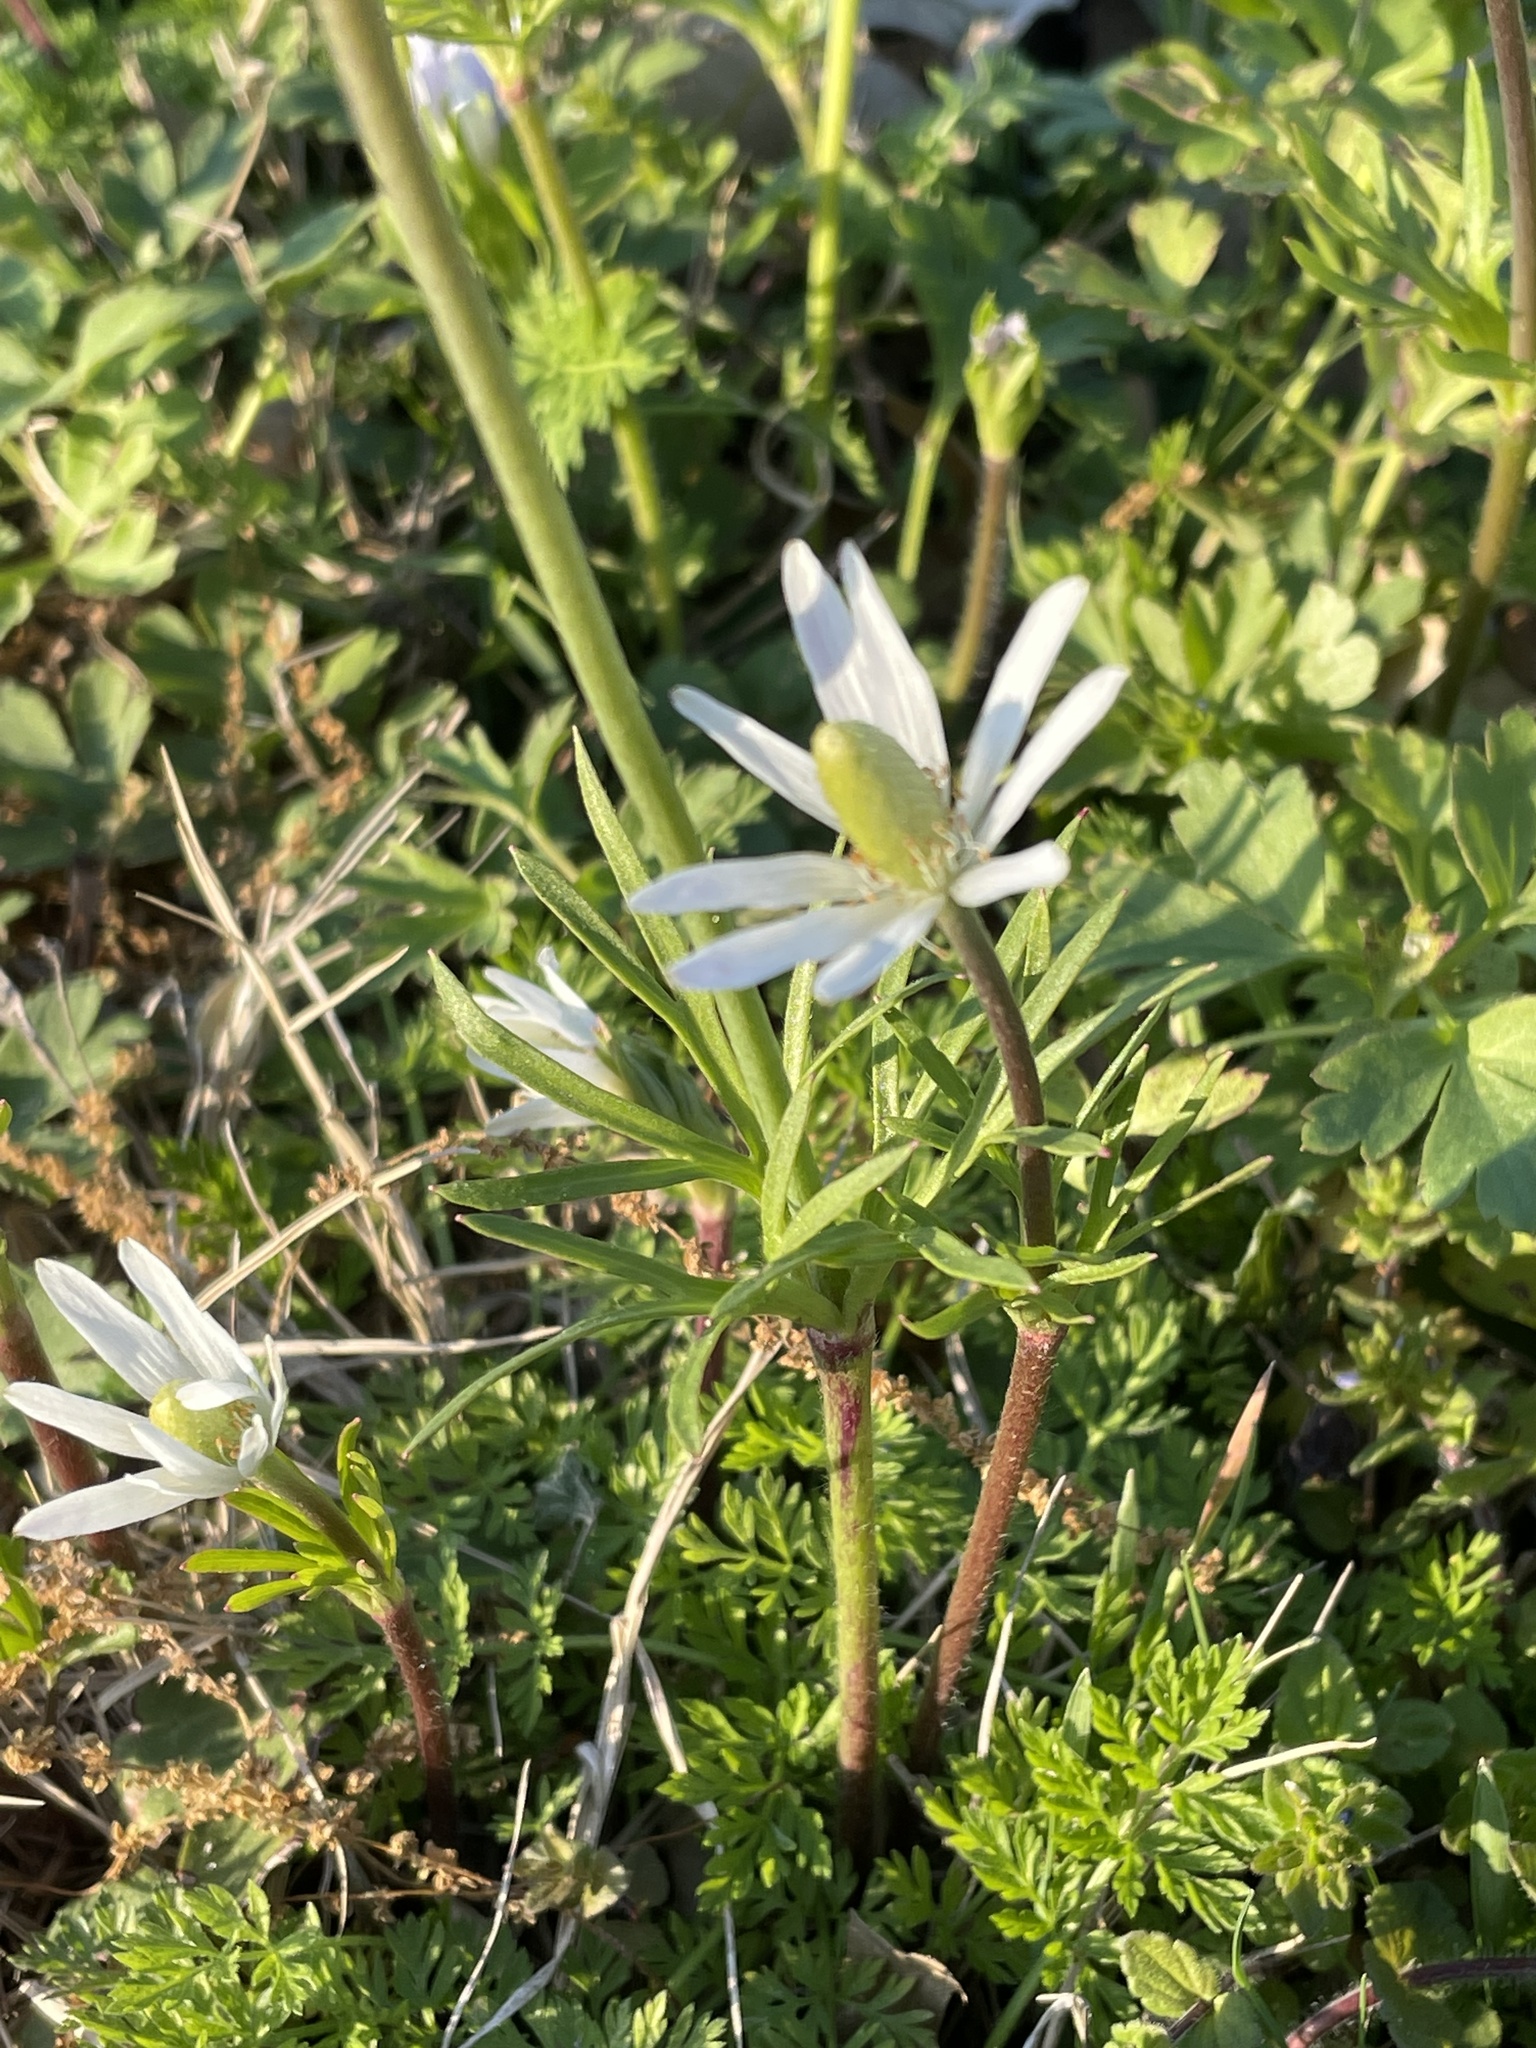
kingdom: Plantae
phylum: Tracheophyta
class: Magnoliopsida
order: Ranunculales
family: Ranunculaceae
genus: Anemone
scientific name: Anemone berlandieri
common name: Ten-petal anemone
